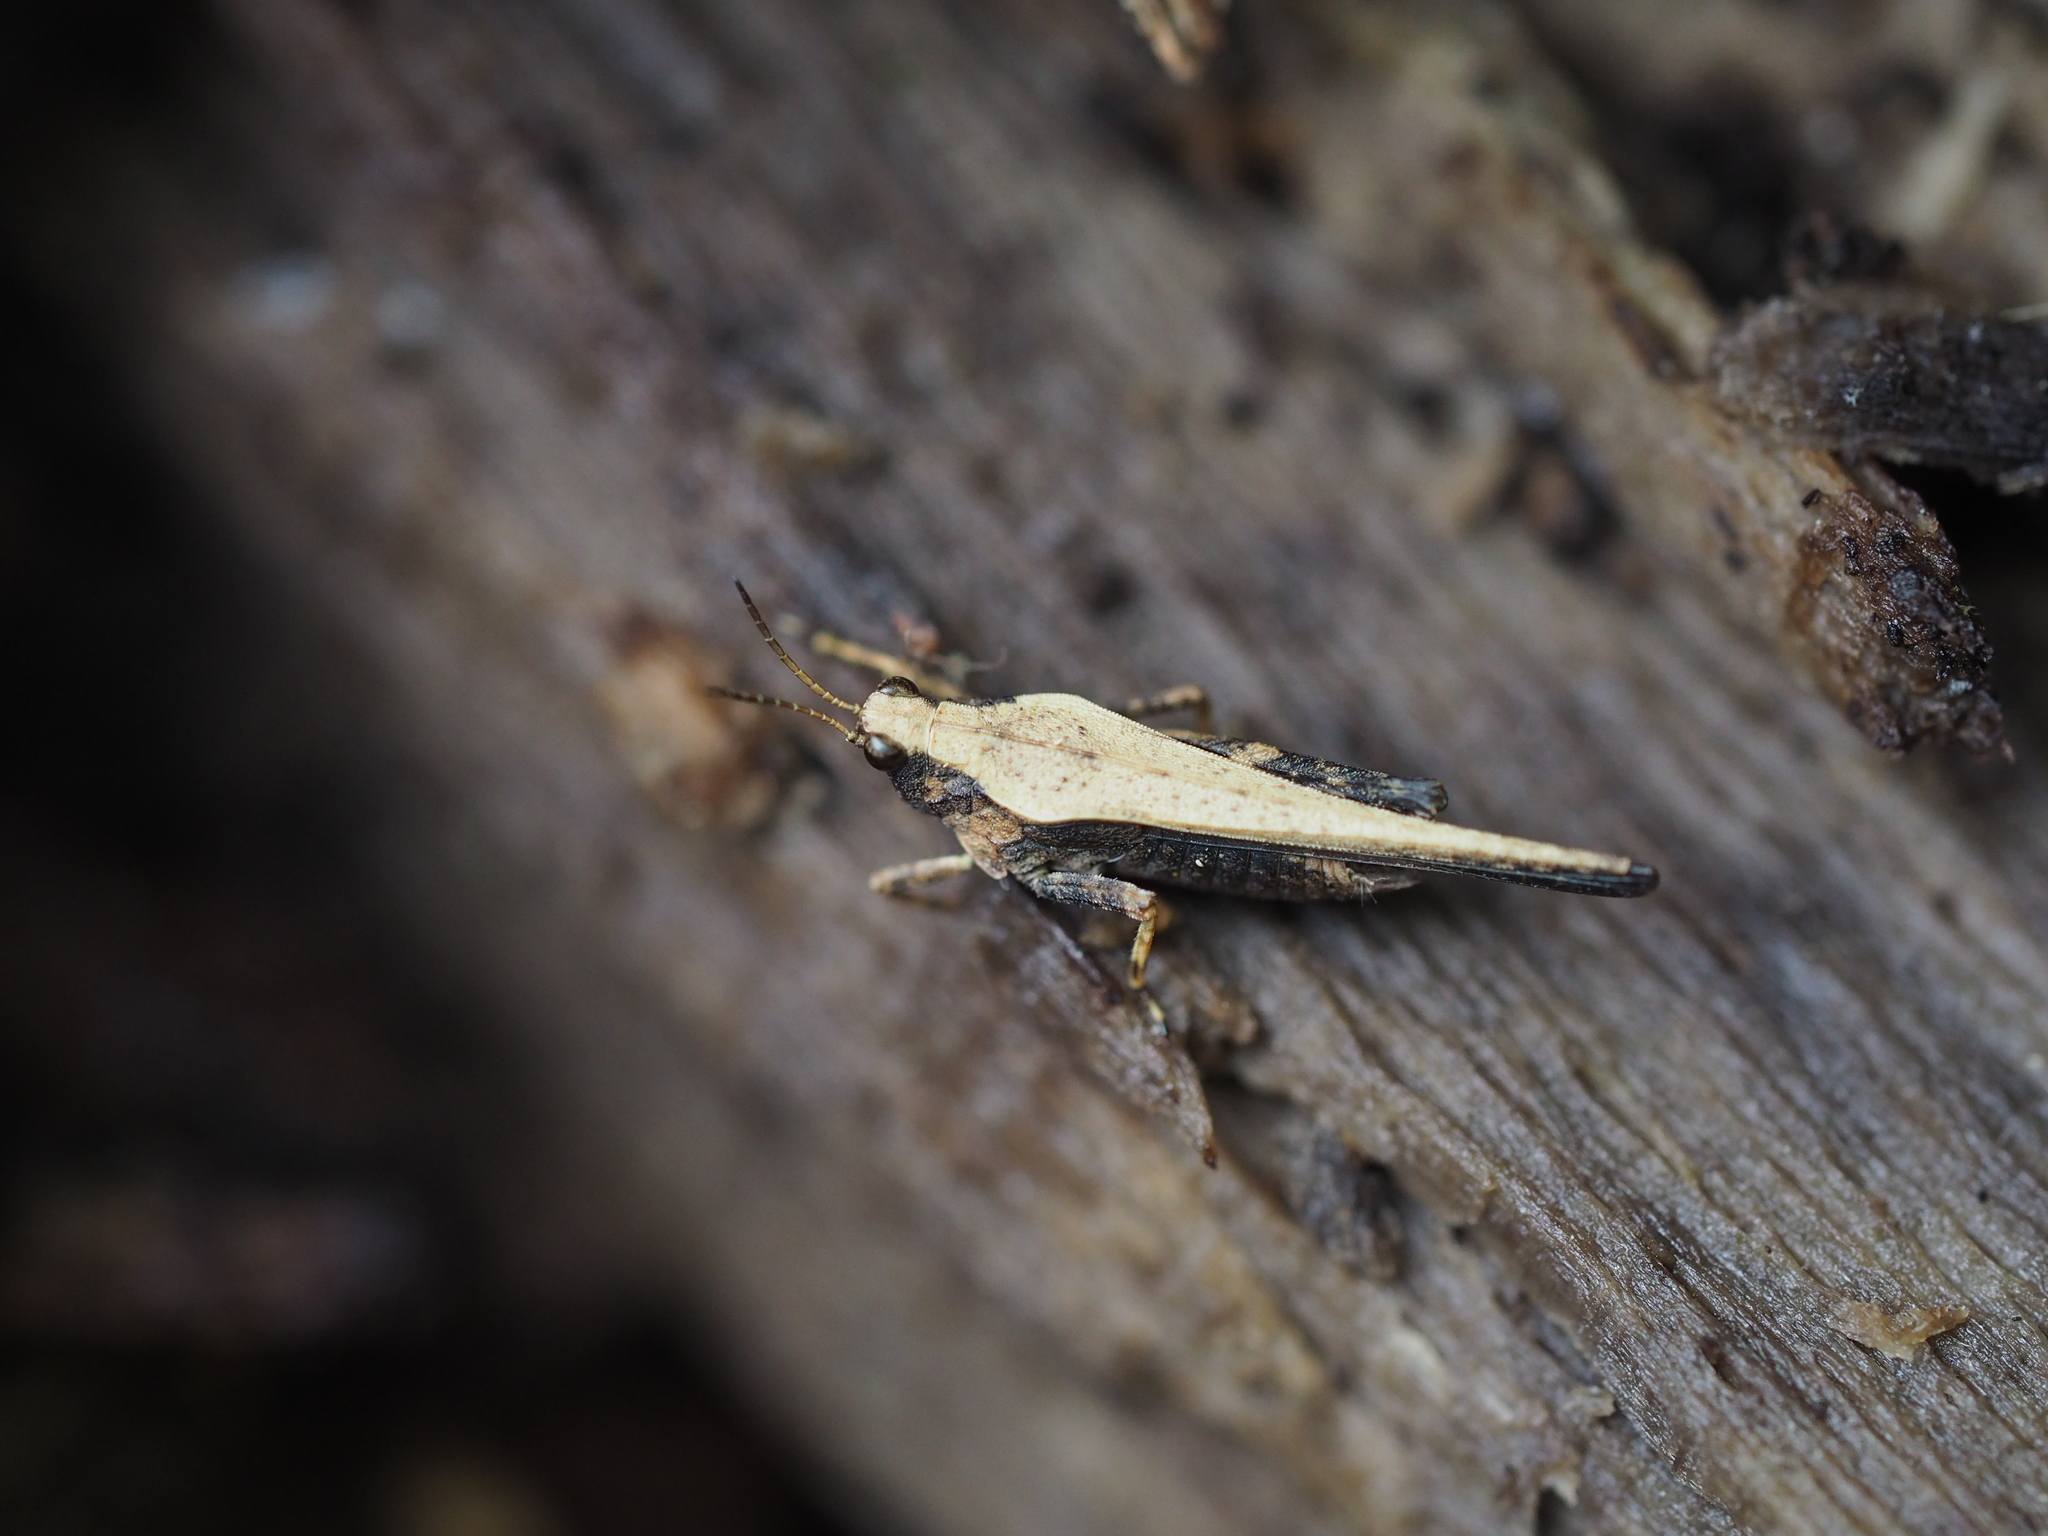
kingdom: Animalia
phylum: Arthropoda
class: Insecta
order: Orthoptera
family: Tetrigidae
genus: Tetrix
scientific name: Tetrix subulata
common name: Slender ground-hopper
